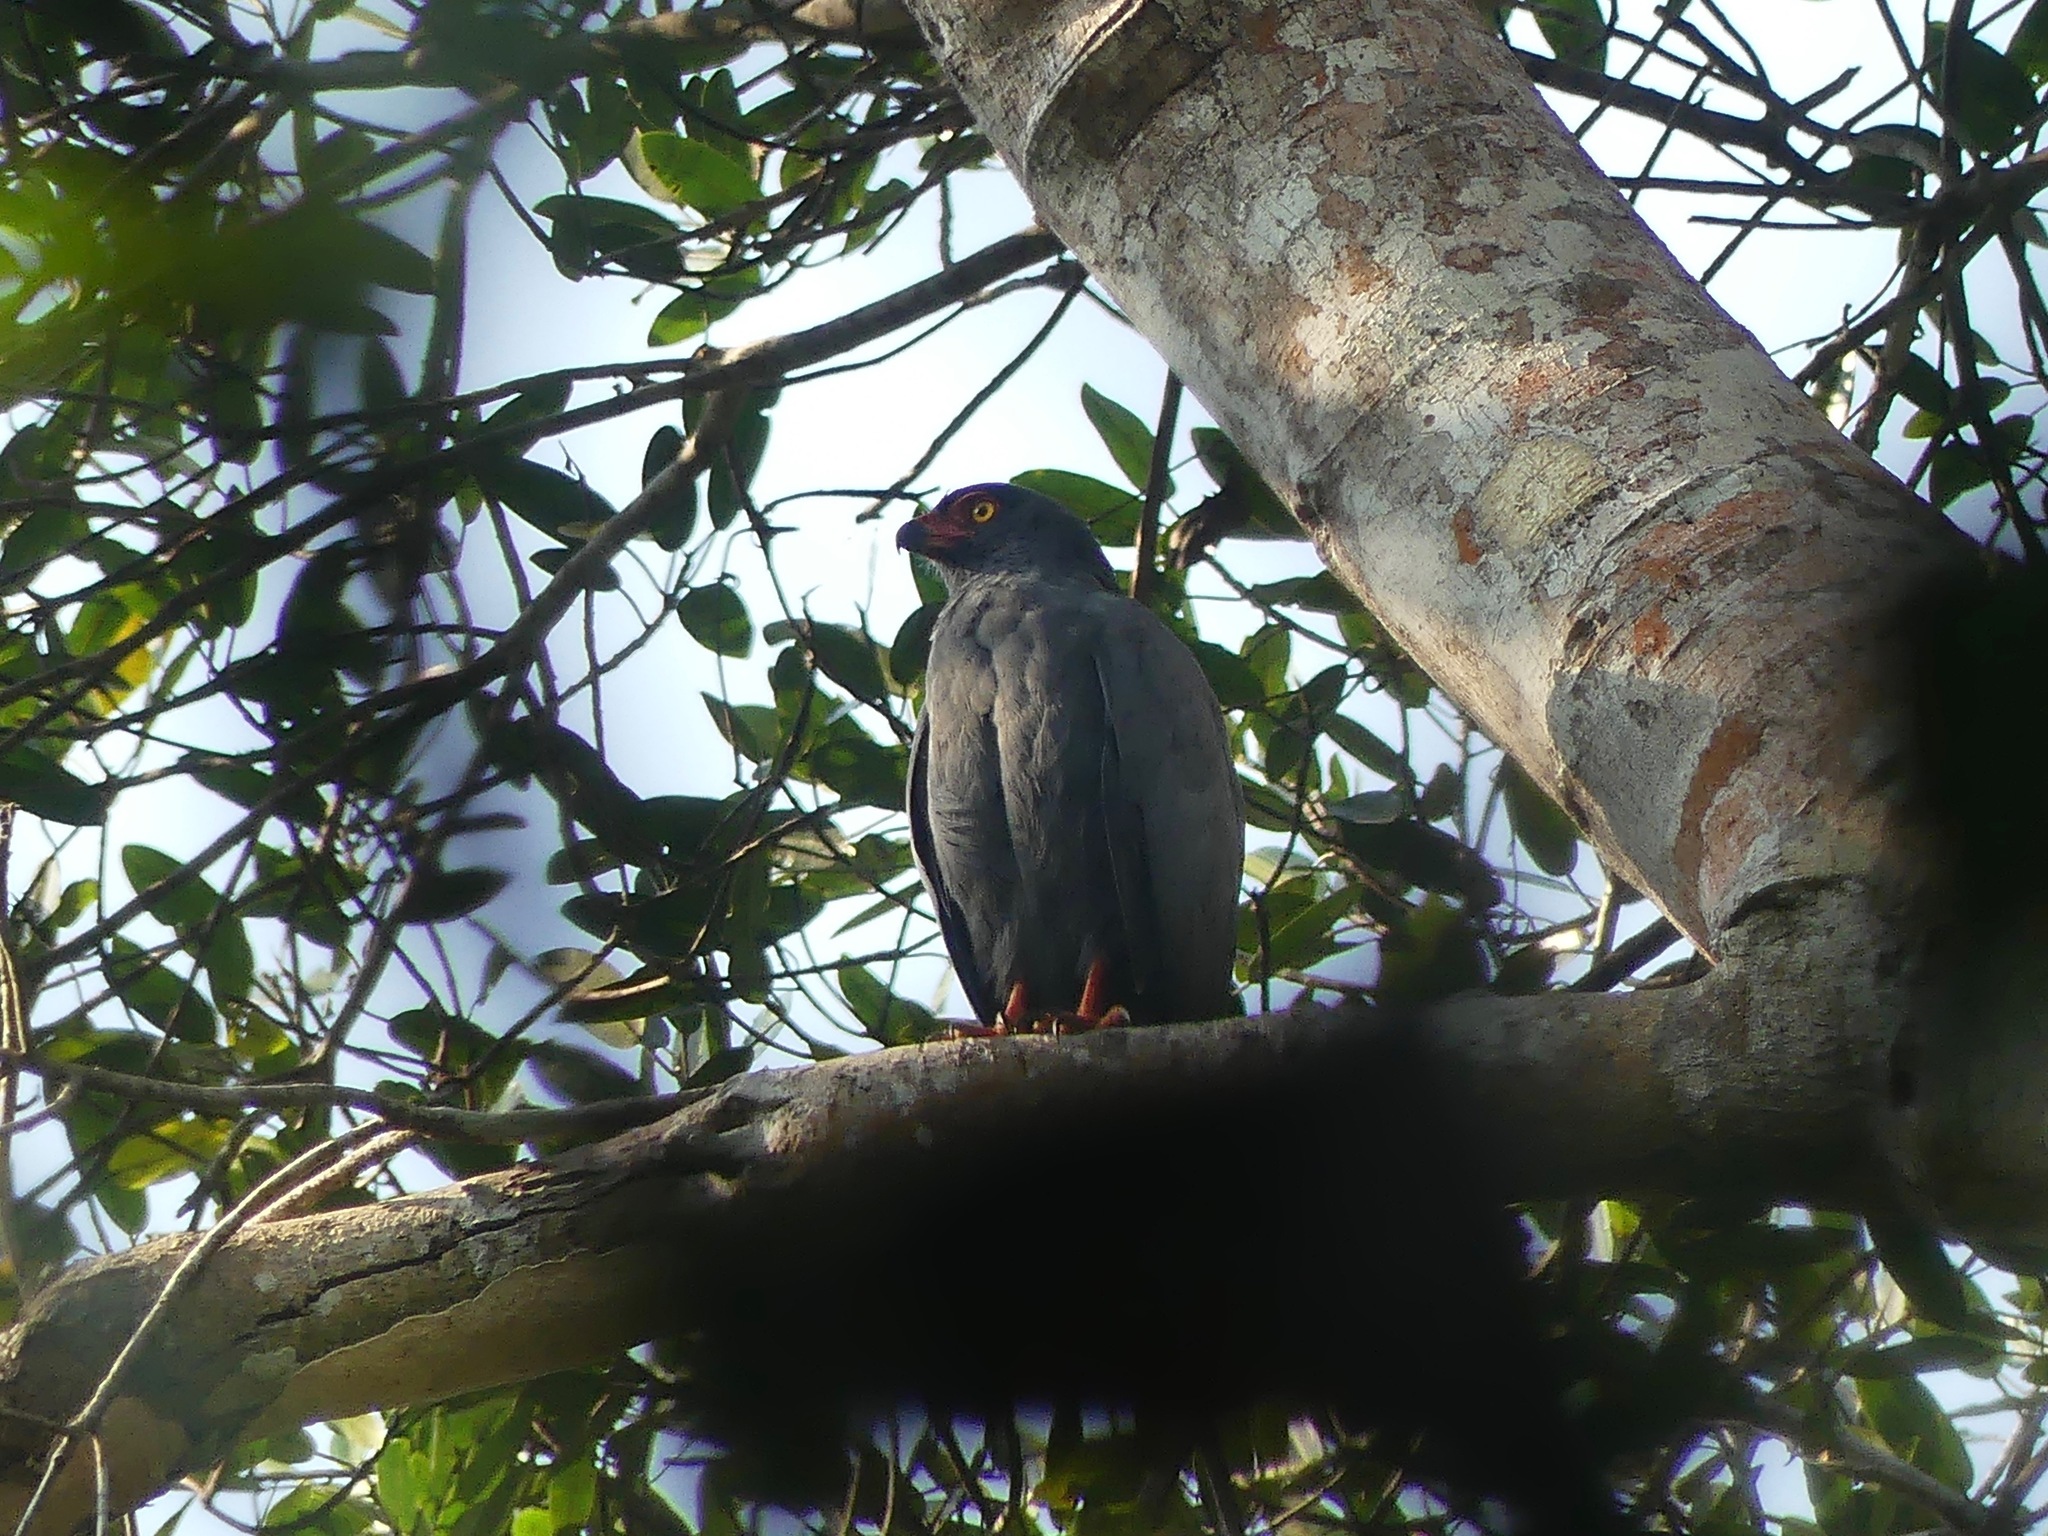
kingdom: Animalia
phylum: Chordata
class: Aves
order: Accipitriformes
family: Accipitridae
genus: Leucopternis
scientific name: Leucopternis schistaceus
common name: Slate-colored hawk
